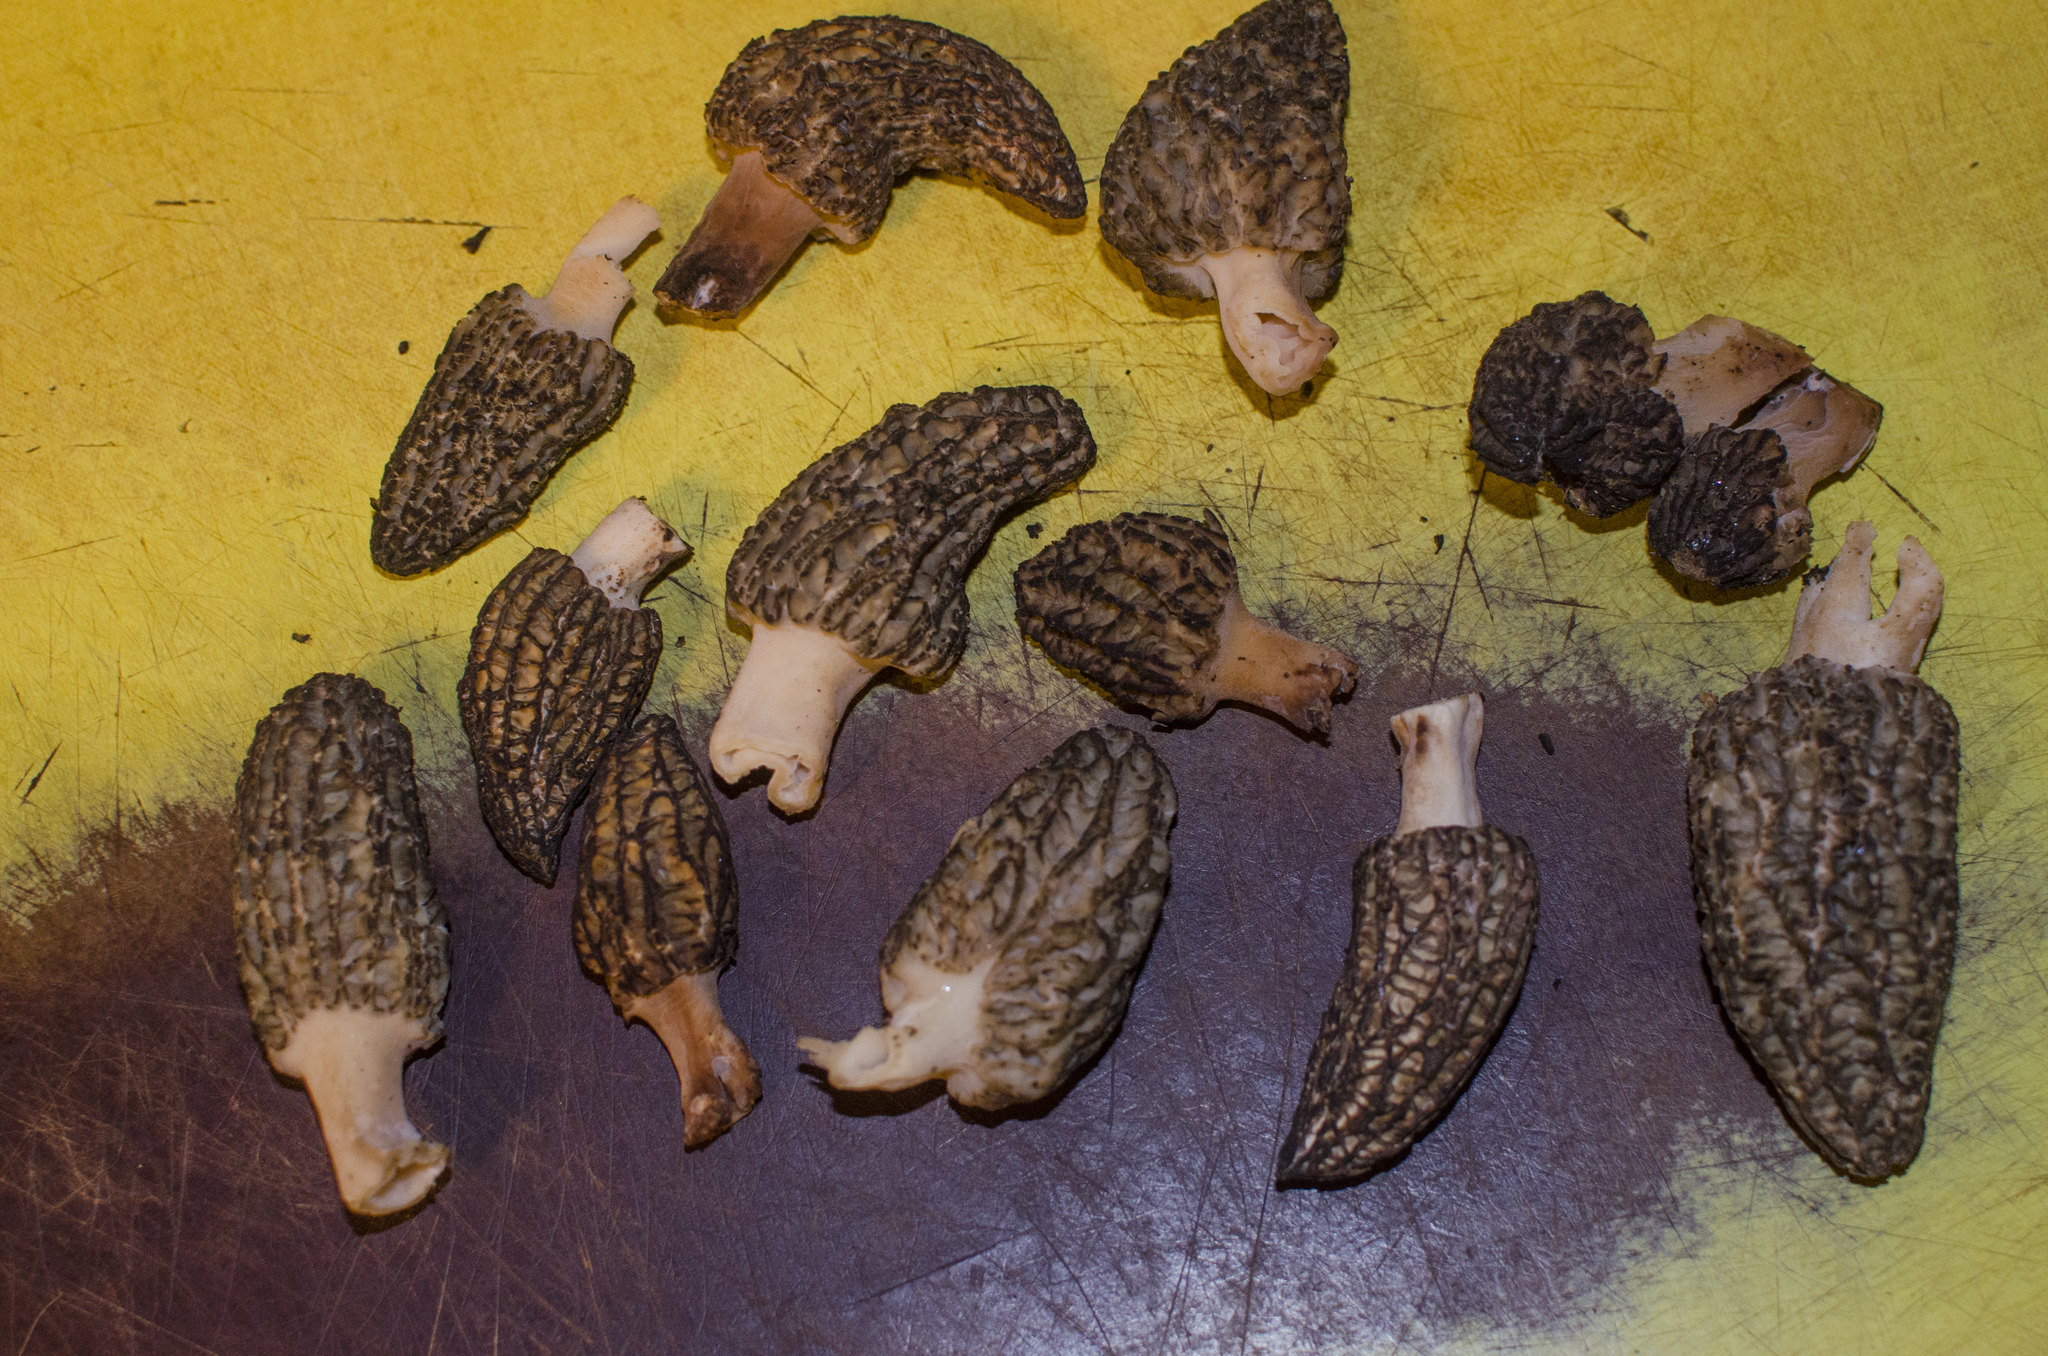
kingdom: Fungi
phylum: Ascomycota
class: Pezizomycetes
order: Pezizales
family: Morchellaceae
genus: Morchella
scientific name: Morchella importuna
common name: Landscaping black morel
